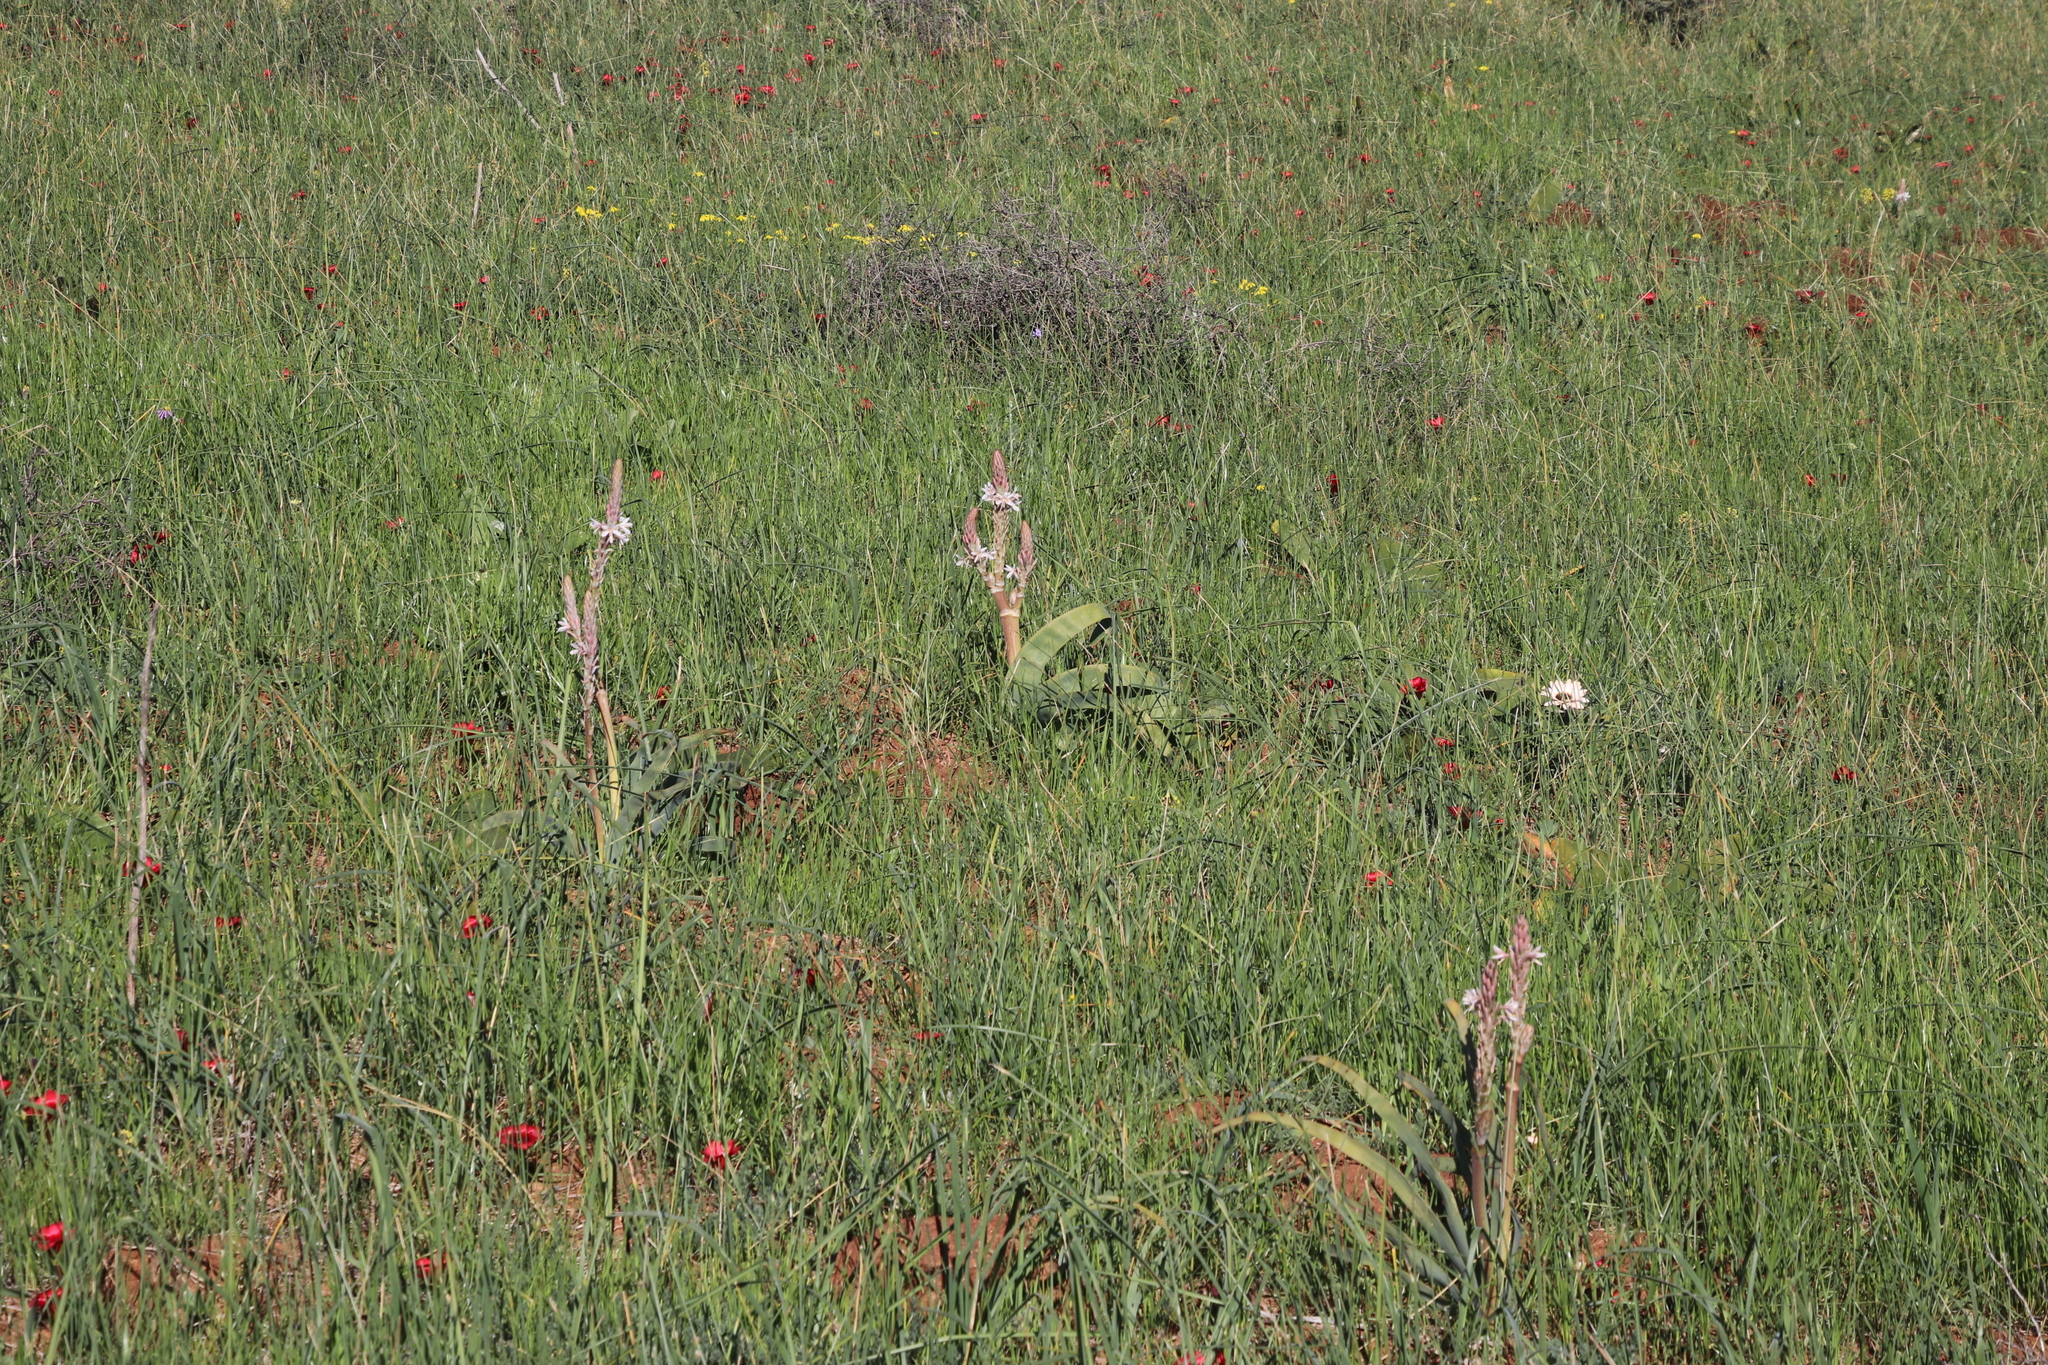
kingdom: Plantae
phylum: Tracheophyta
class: Liliopsida
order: Asparagales
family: Asphodelaceae
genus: Trachyandra
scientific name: Trachyandra falcata
